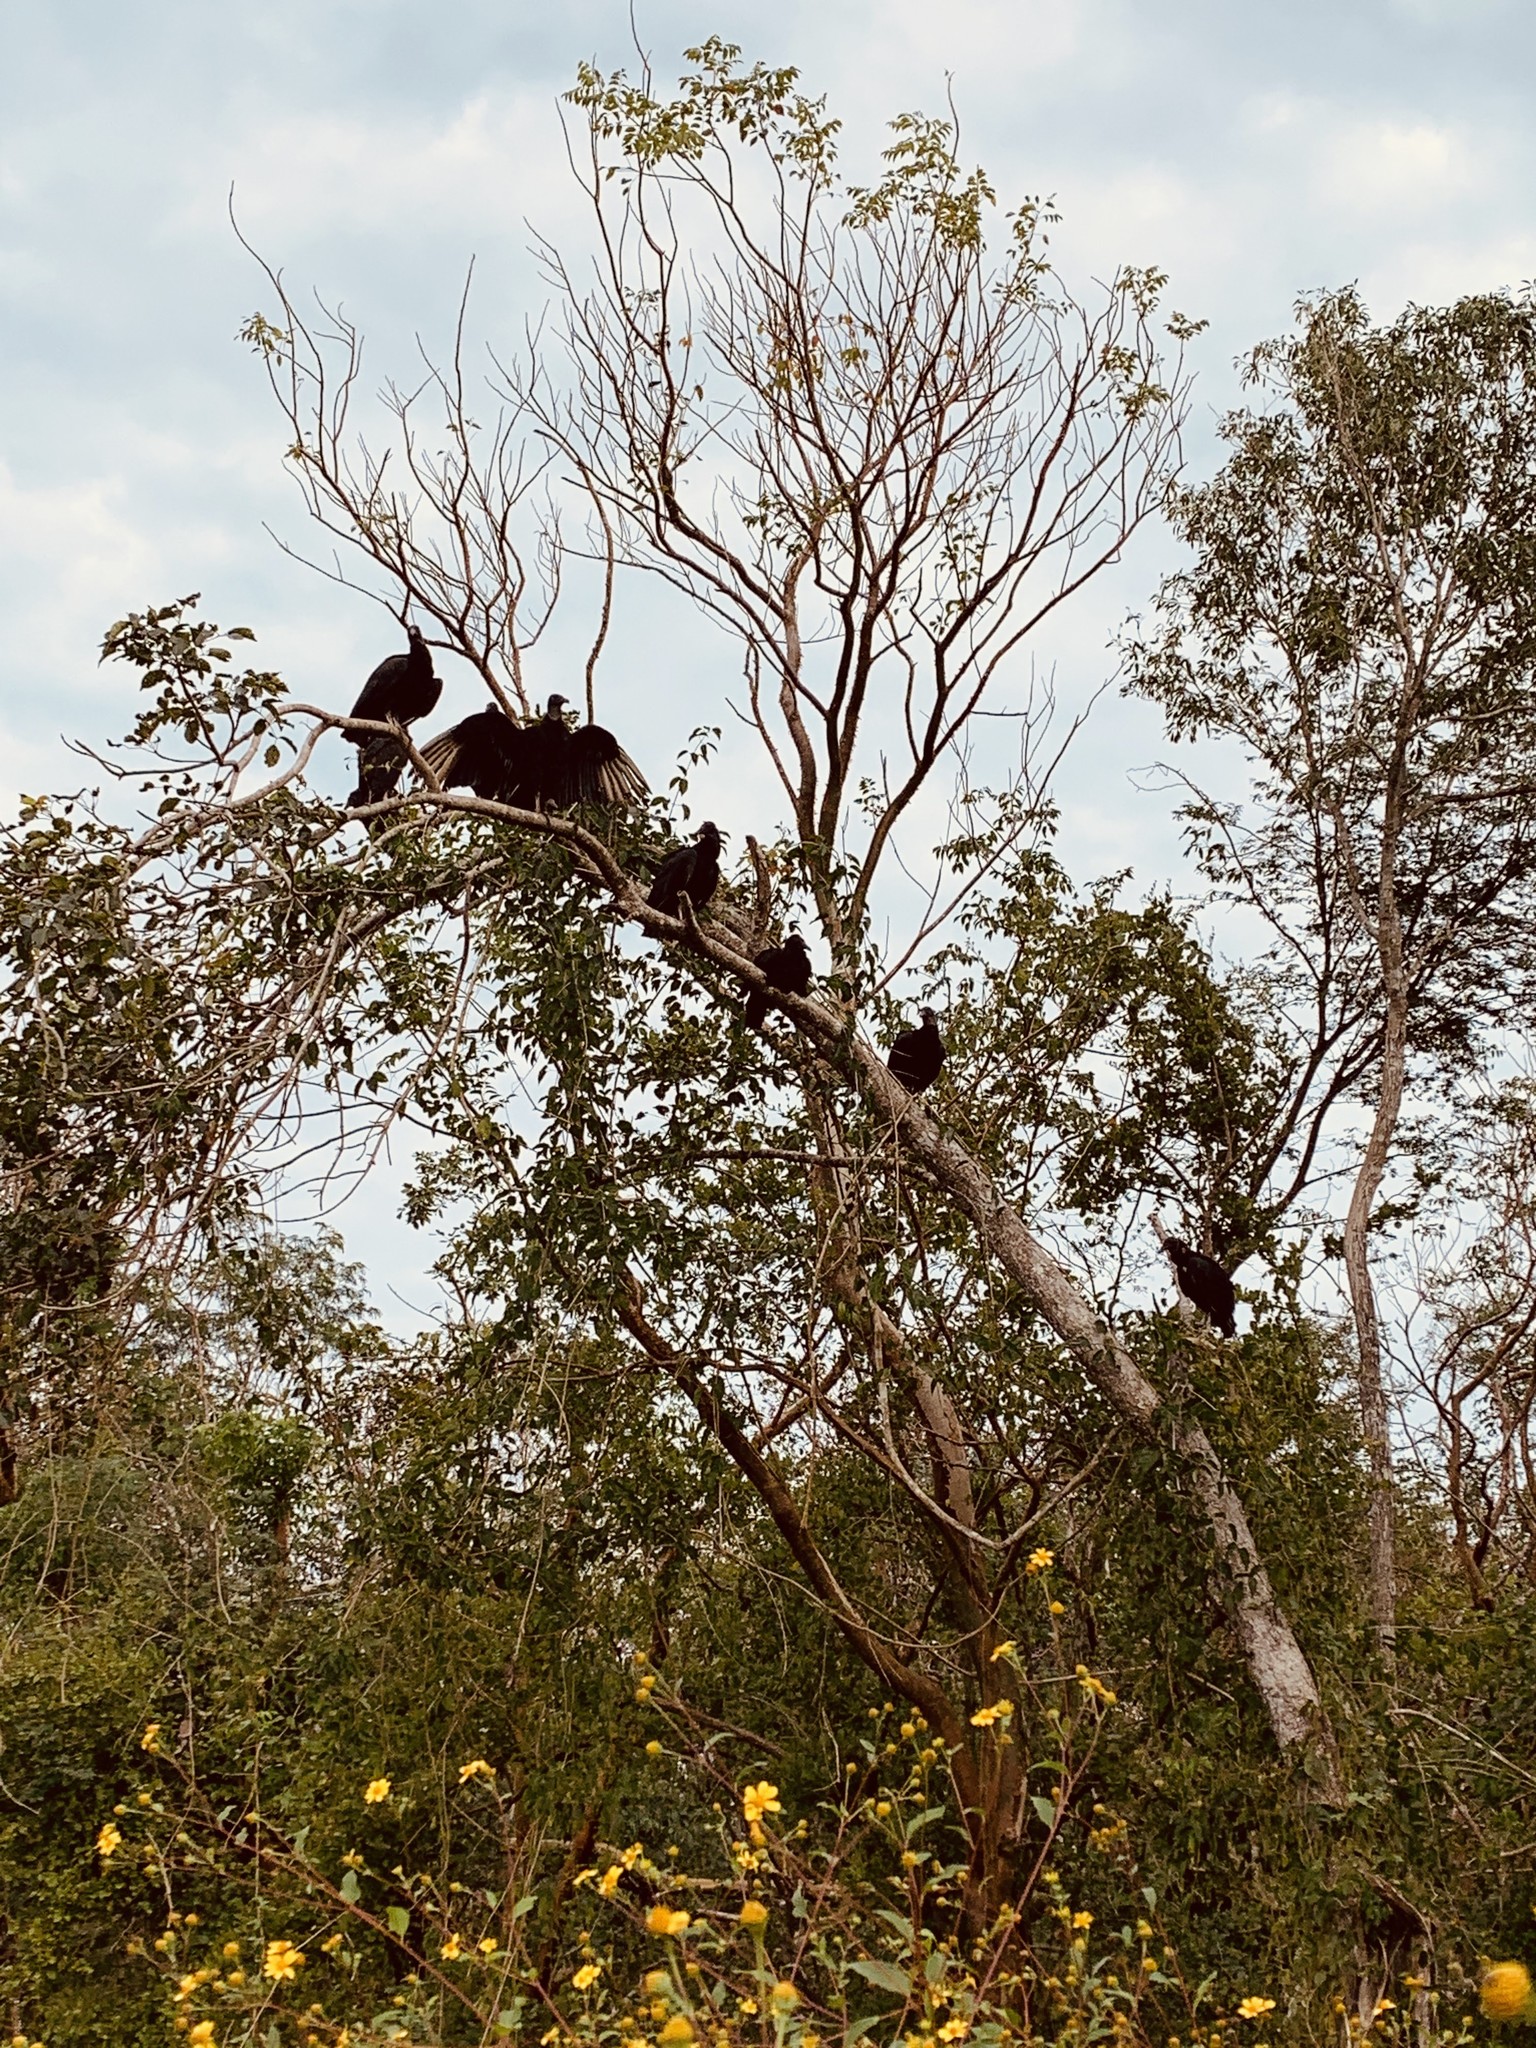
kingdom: Animalia
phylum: Chordata
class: Aves
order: Accipitriformes
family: Cathartidae
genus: Coragyps
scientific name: Coragyps atratus
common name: Black vulture
